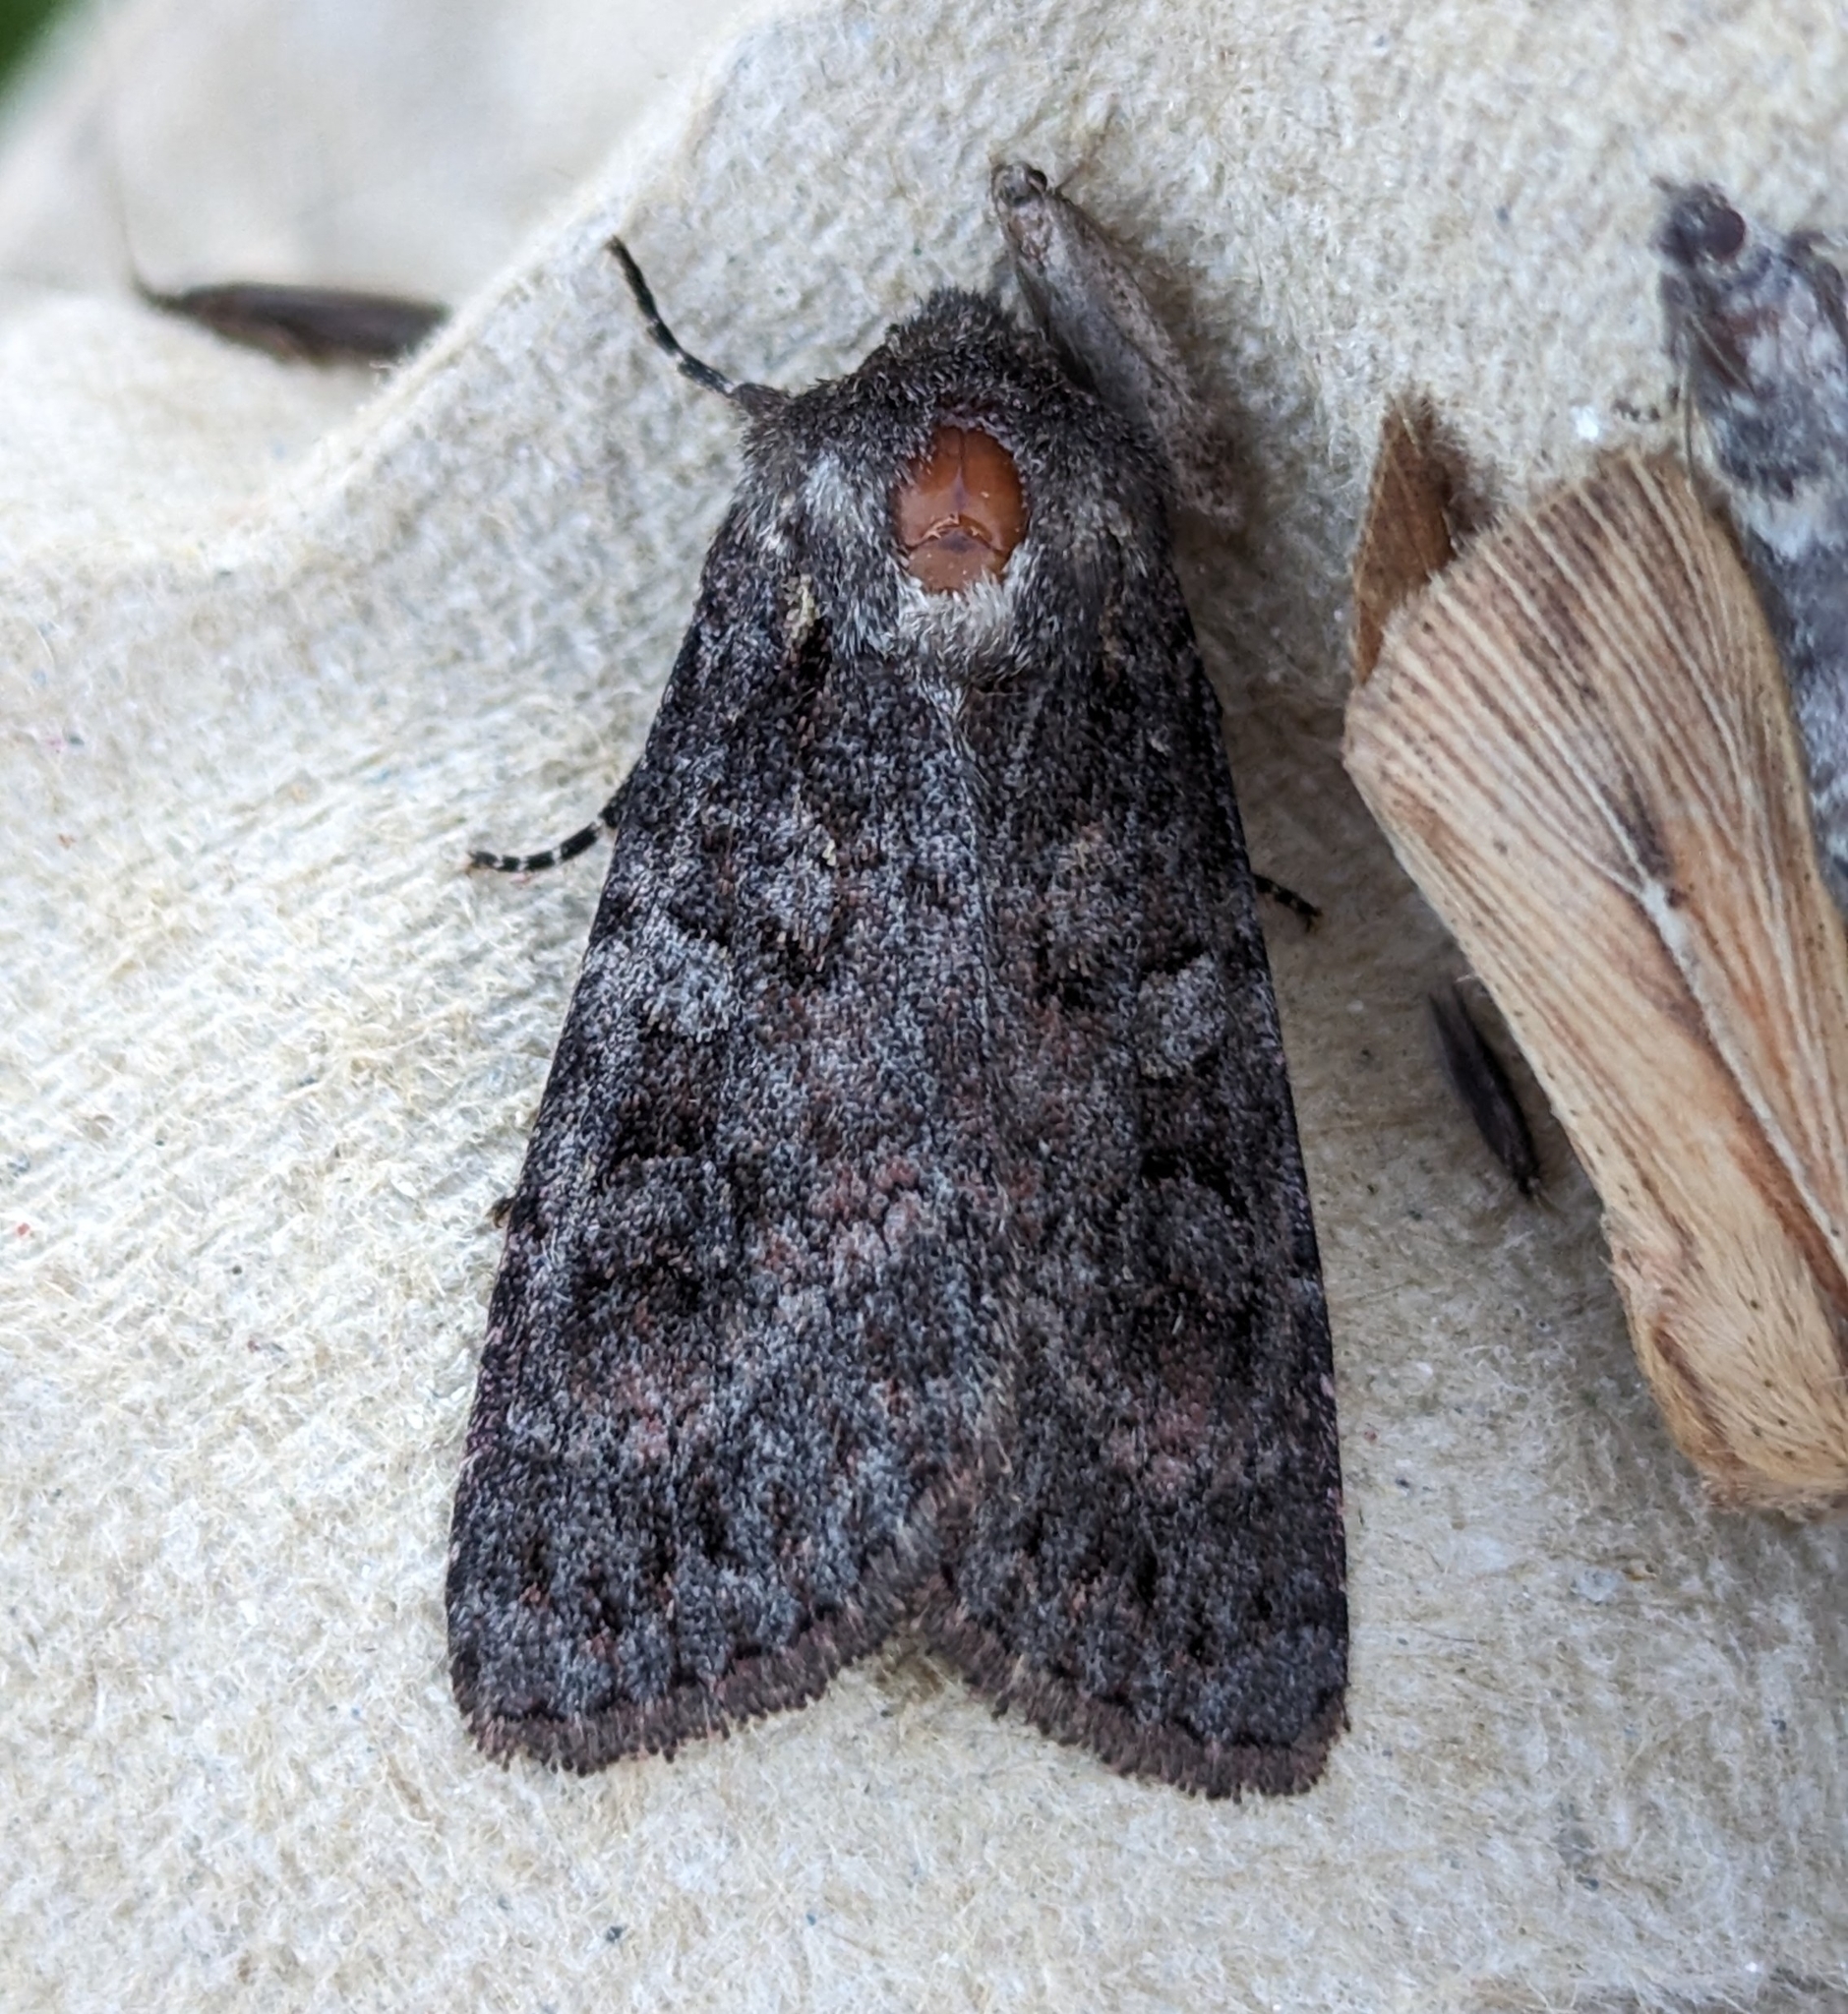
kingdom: Animalia
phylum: Arthropoda
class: Insecta
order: Lepidoptera
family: Noctuidae
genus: Eurois
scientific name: Eurois astricta
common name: Great brown dart
